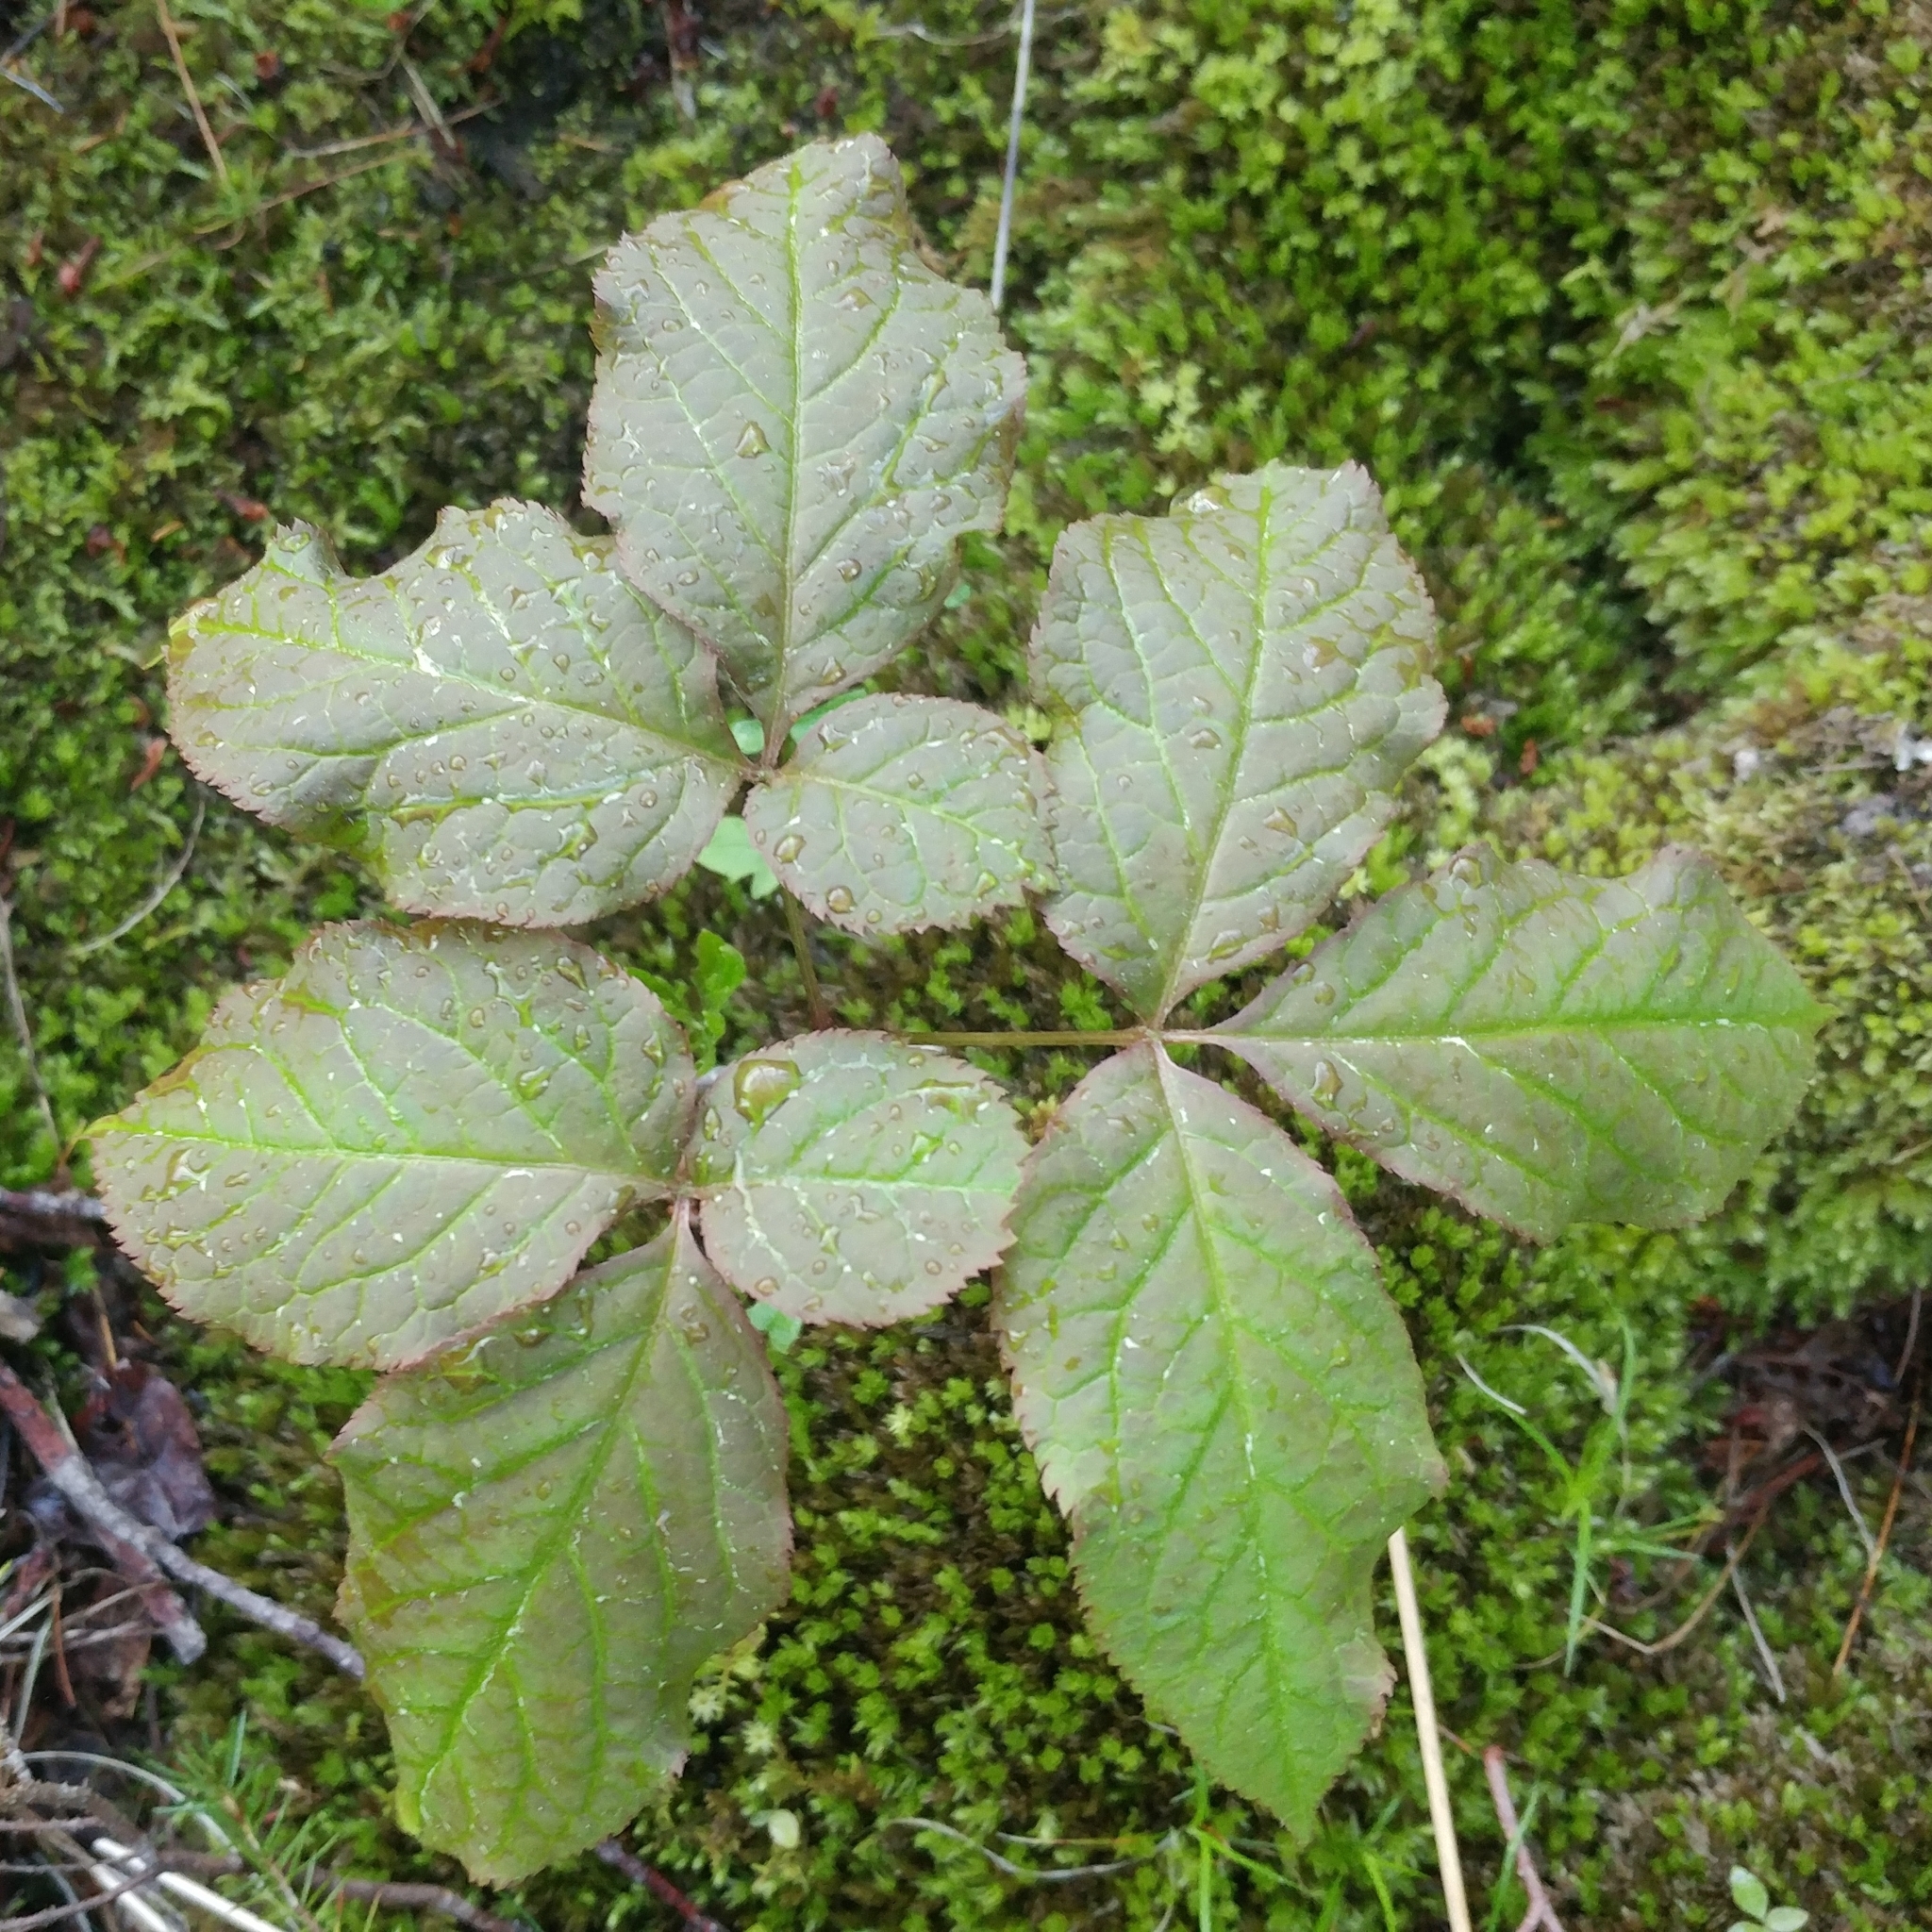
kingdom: Plantae
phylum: Tracheophyta
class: Magnoliopsida
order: Apiales
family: Araliaceae
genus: Aralia
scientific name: Aralia nudicaulis
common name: Wild sarsaparilla
